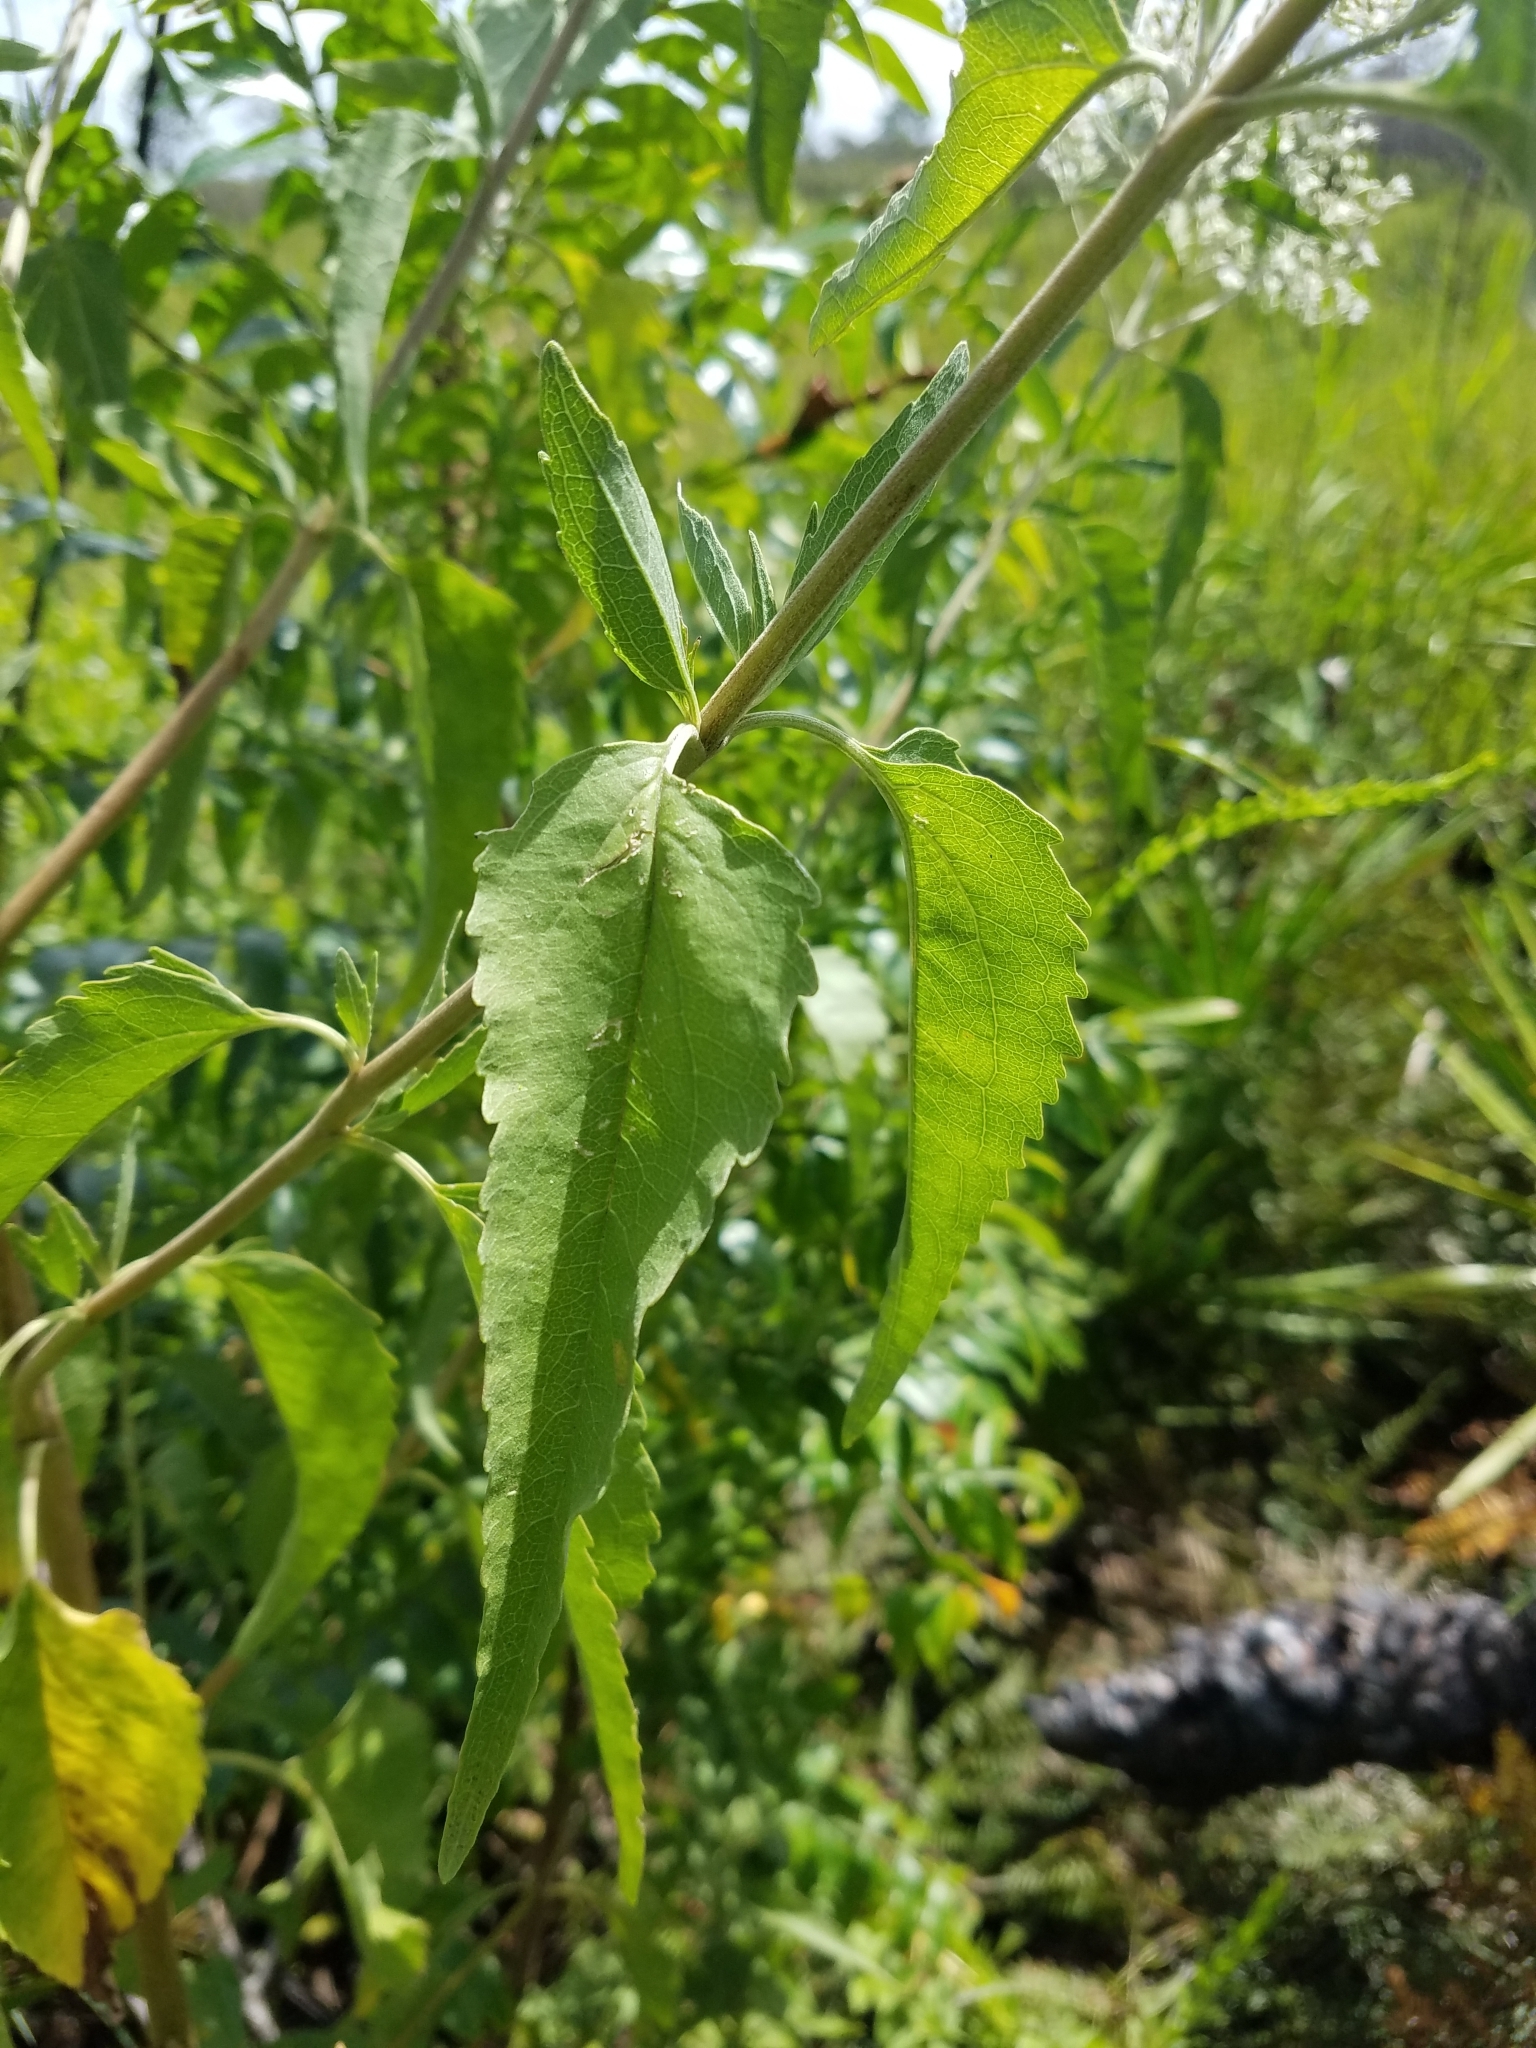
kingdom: Plantae
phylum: Tracheophyta
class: Magnoliopsida
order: Asterales
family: Asteraceae
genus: Eupatorium
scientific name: Eupatorium serotinum
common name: Late boneset
